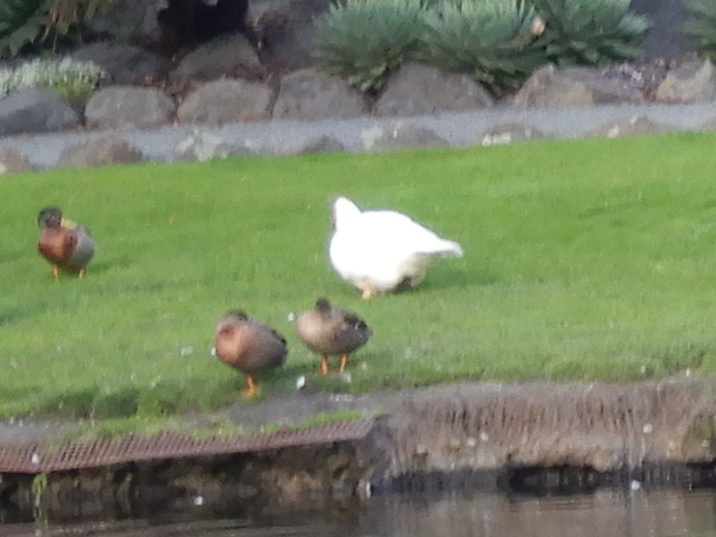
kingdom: Animalia
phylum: Chordata
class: Aves
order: Anseriformes
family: Anatidae
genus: Cairina
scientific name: Cairina moschata
